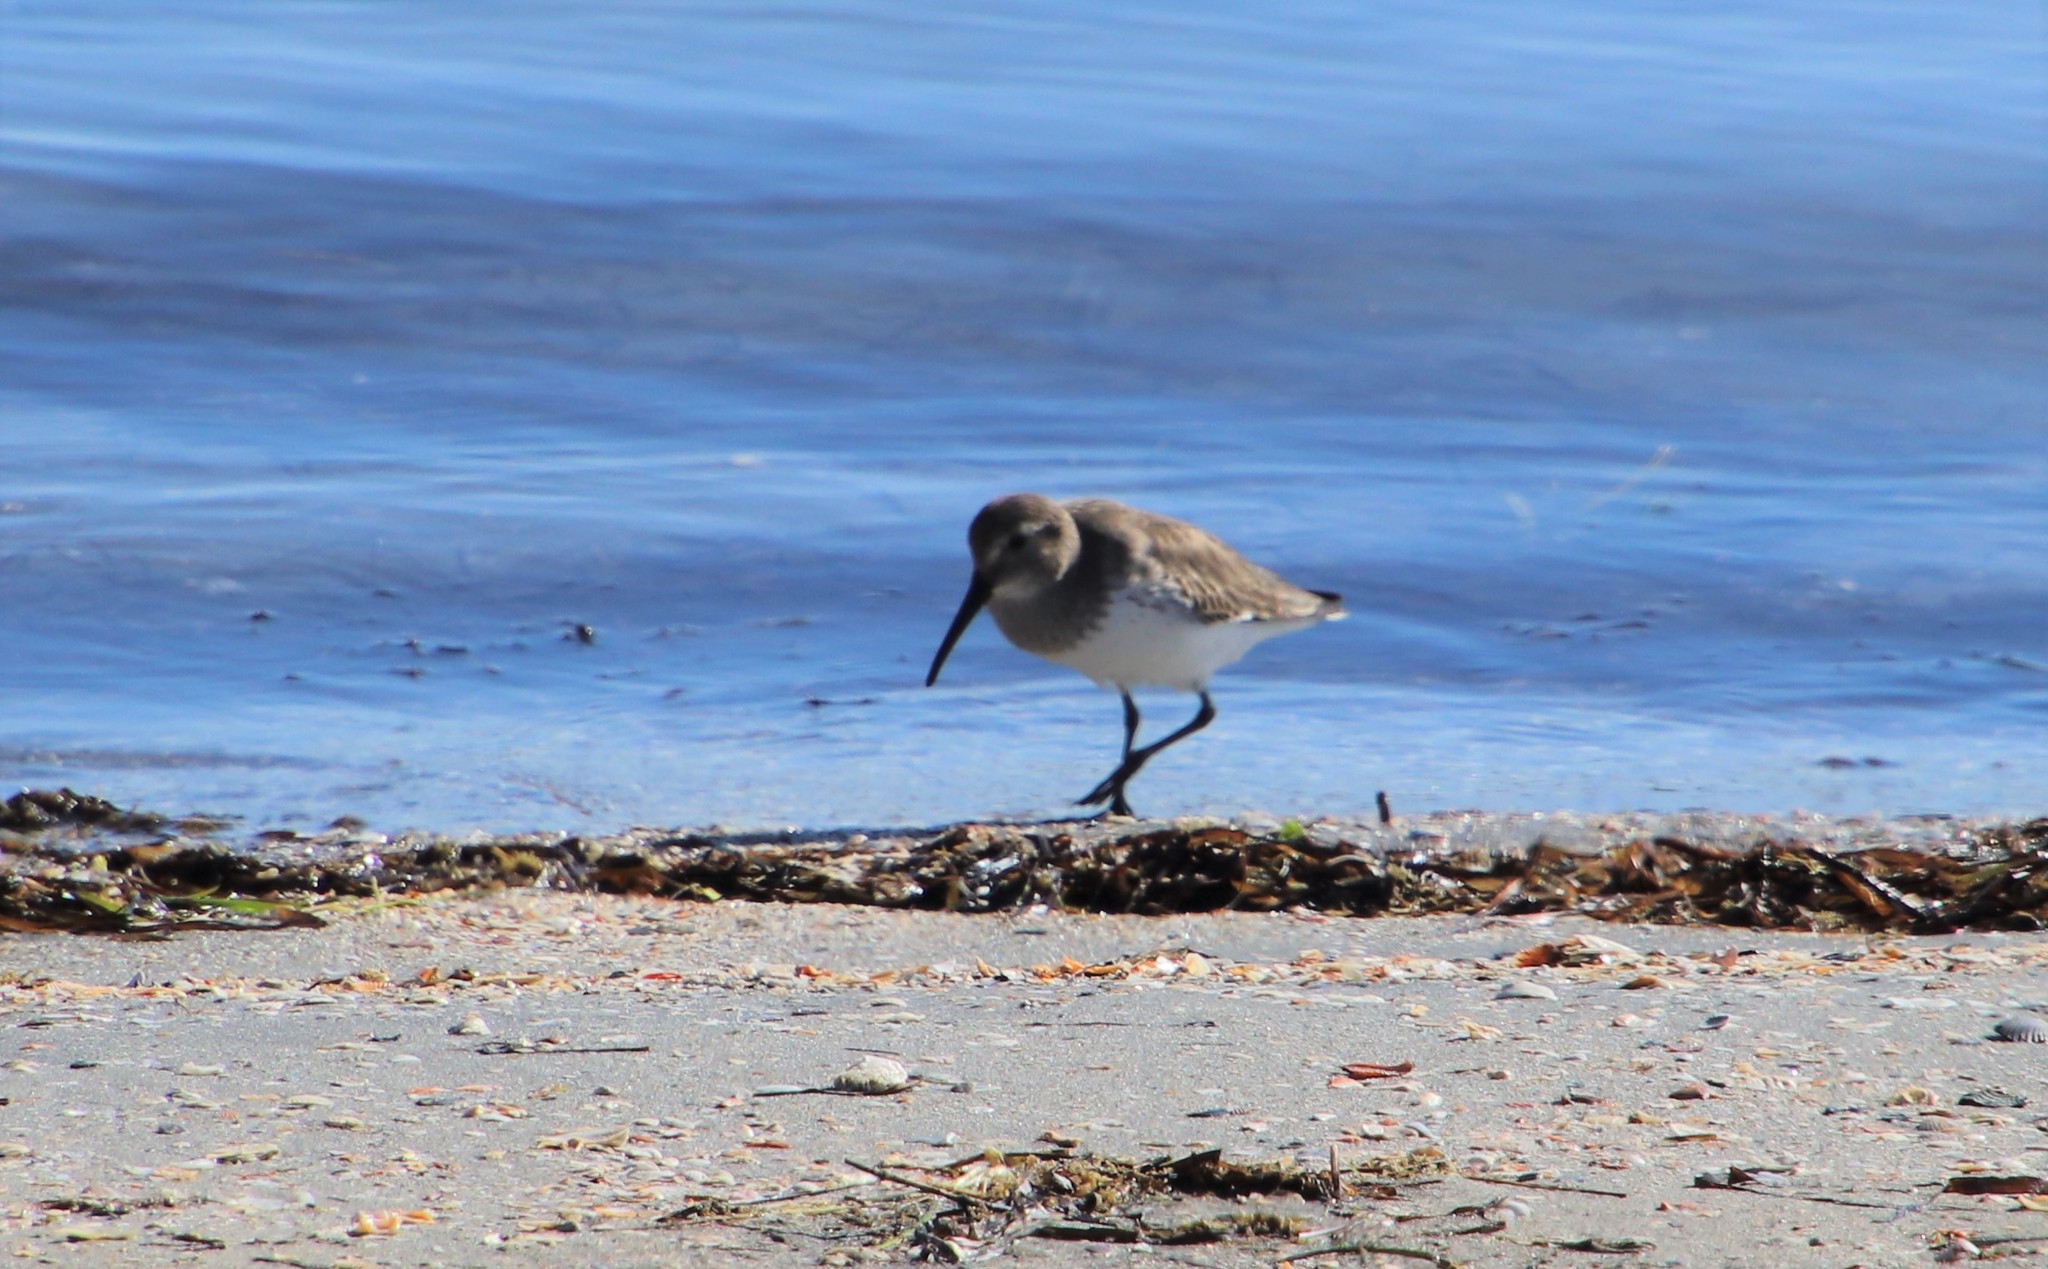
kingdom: Animalia
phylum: Chordata
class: Aves
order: Charadriiformes
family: Scolopacidae
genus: Calidris
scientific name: Calidris alpina
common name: Dunlin
